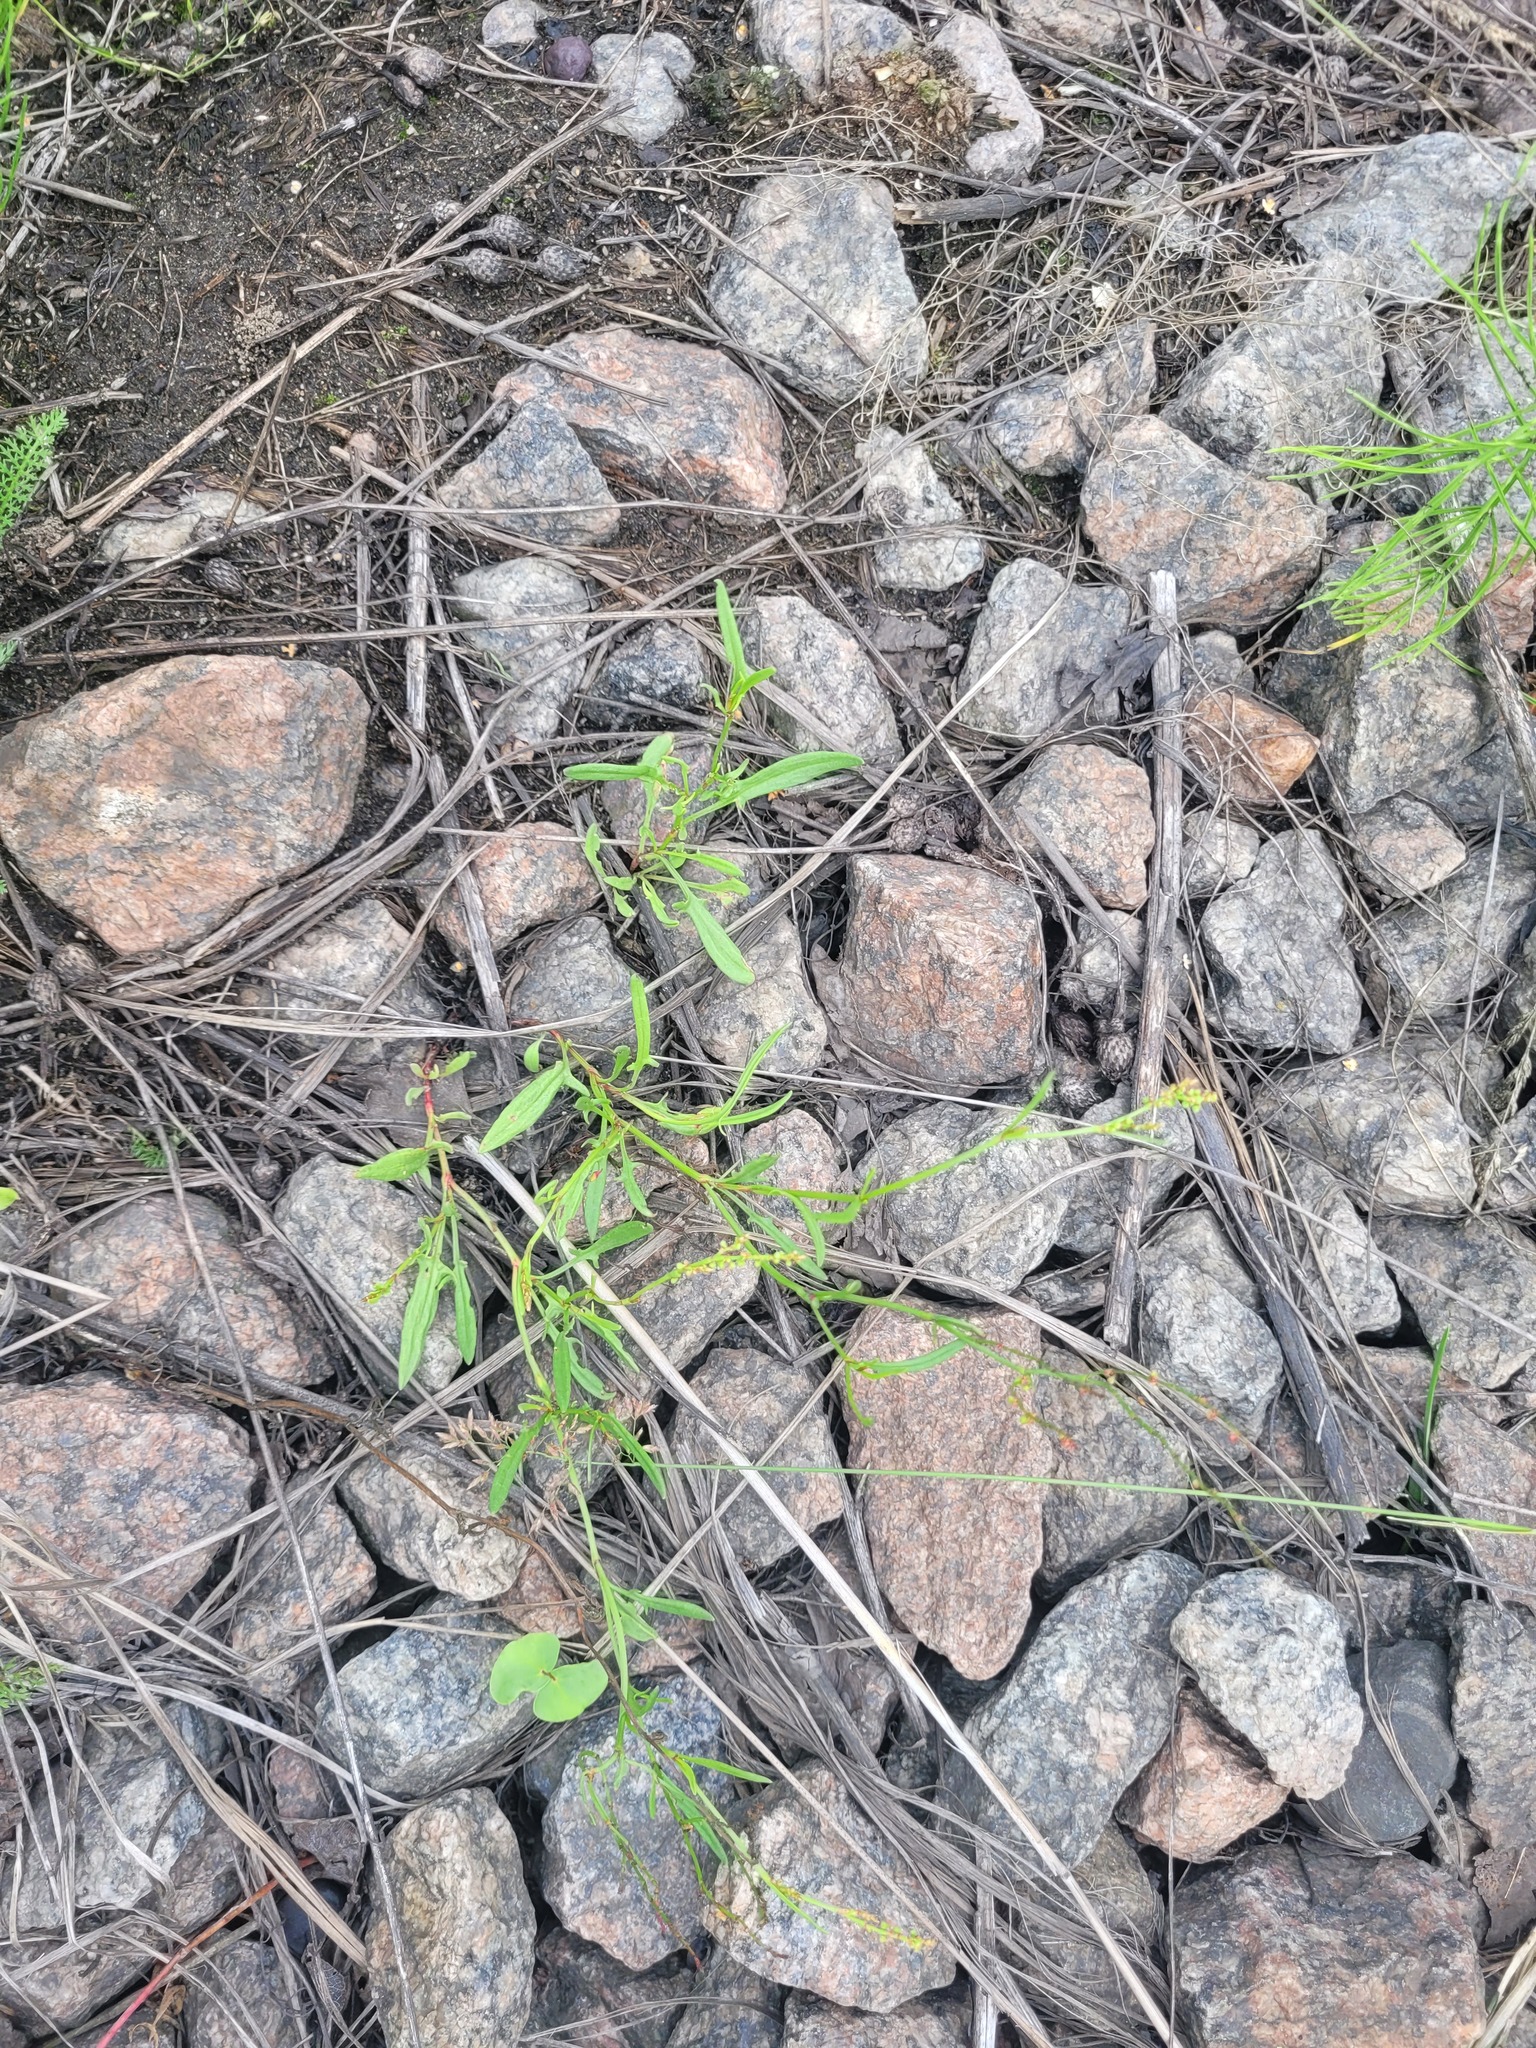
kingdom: Plantae
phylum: Tracheophyta
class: Magnoliopsida
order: Caryophyllales
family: Polygonaceae
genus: Rumex
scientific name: Rumex acetosella
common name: Common sheep sorrel
